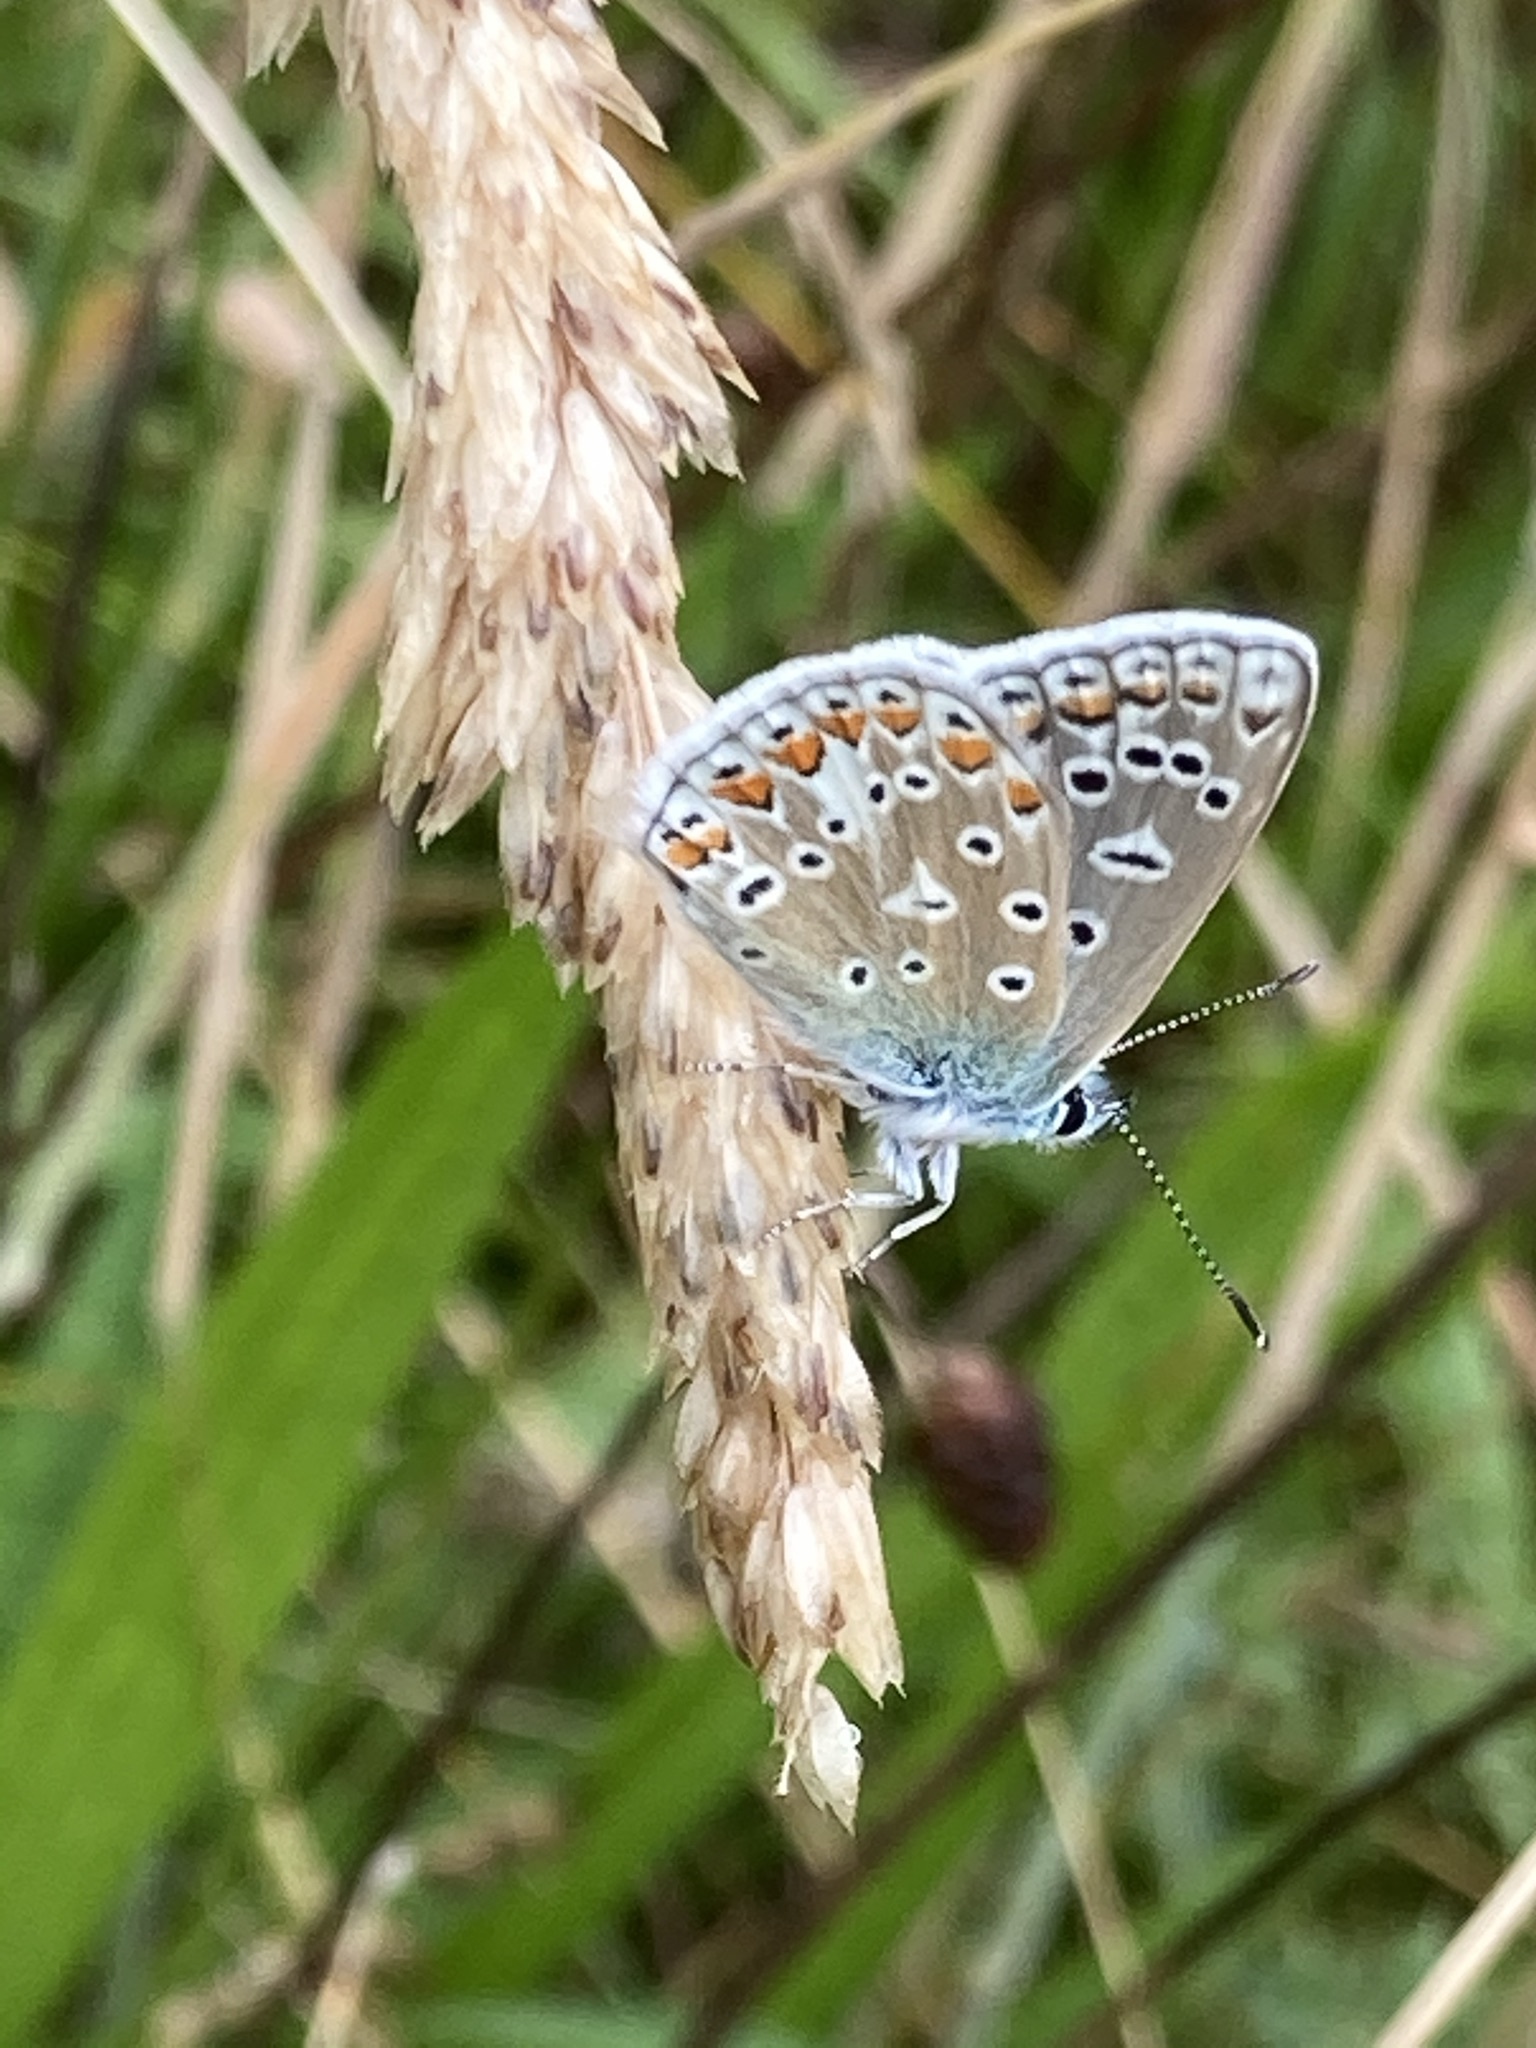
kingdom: Animalia
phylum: Arthropoda
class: Insecta
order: Lepidoptera
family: Lycaenidae
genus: Polyommatus
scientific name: Polyommatus icarus
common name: Common blue
